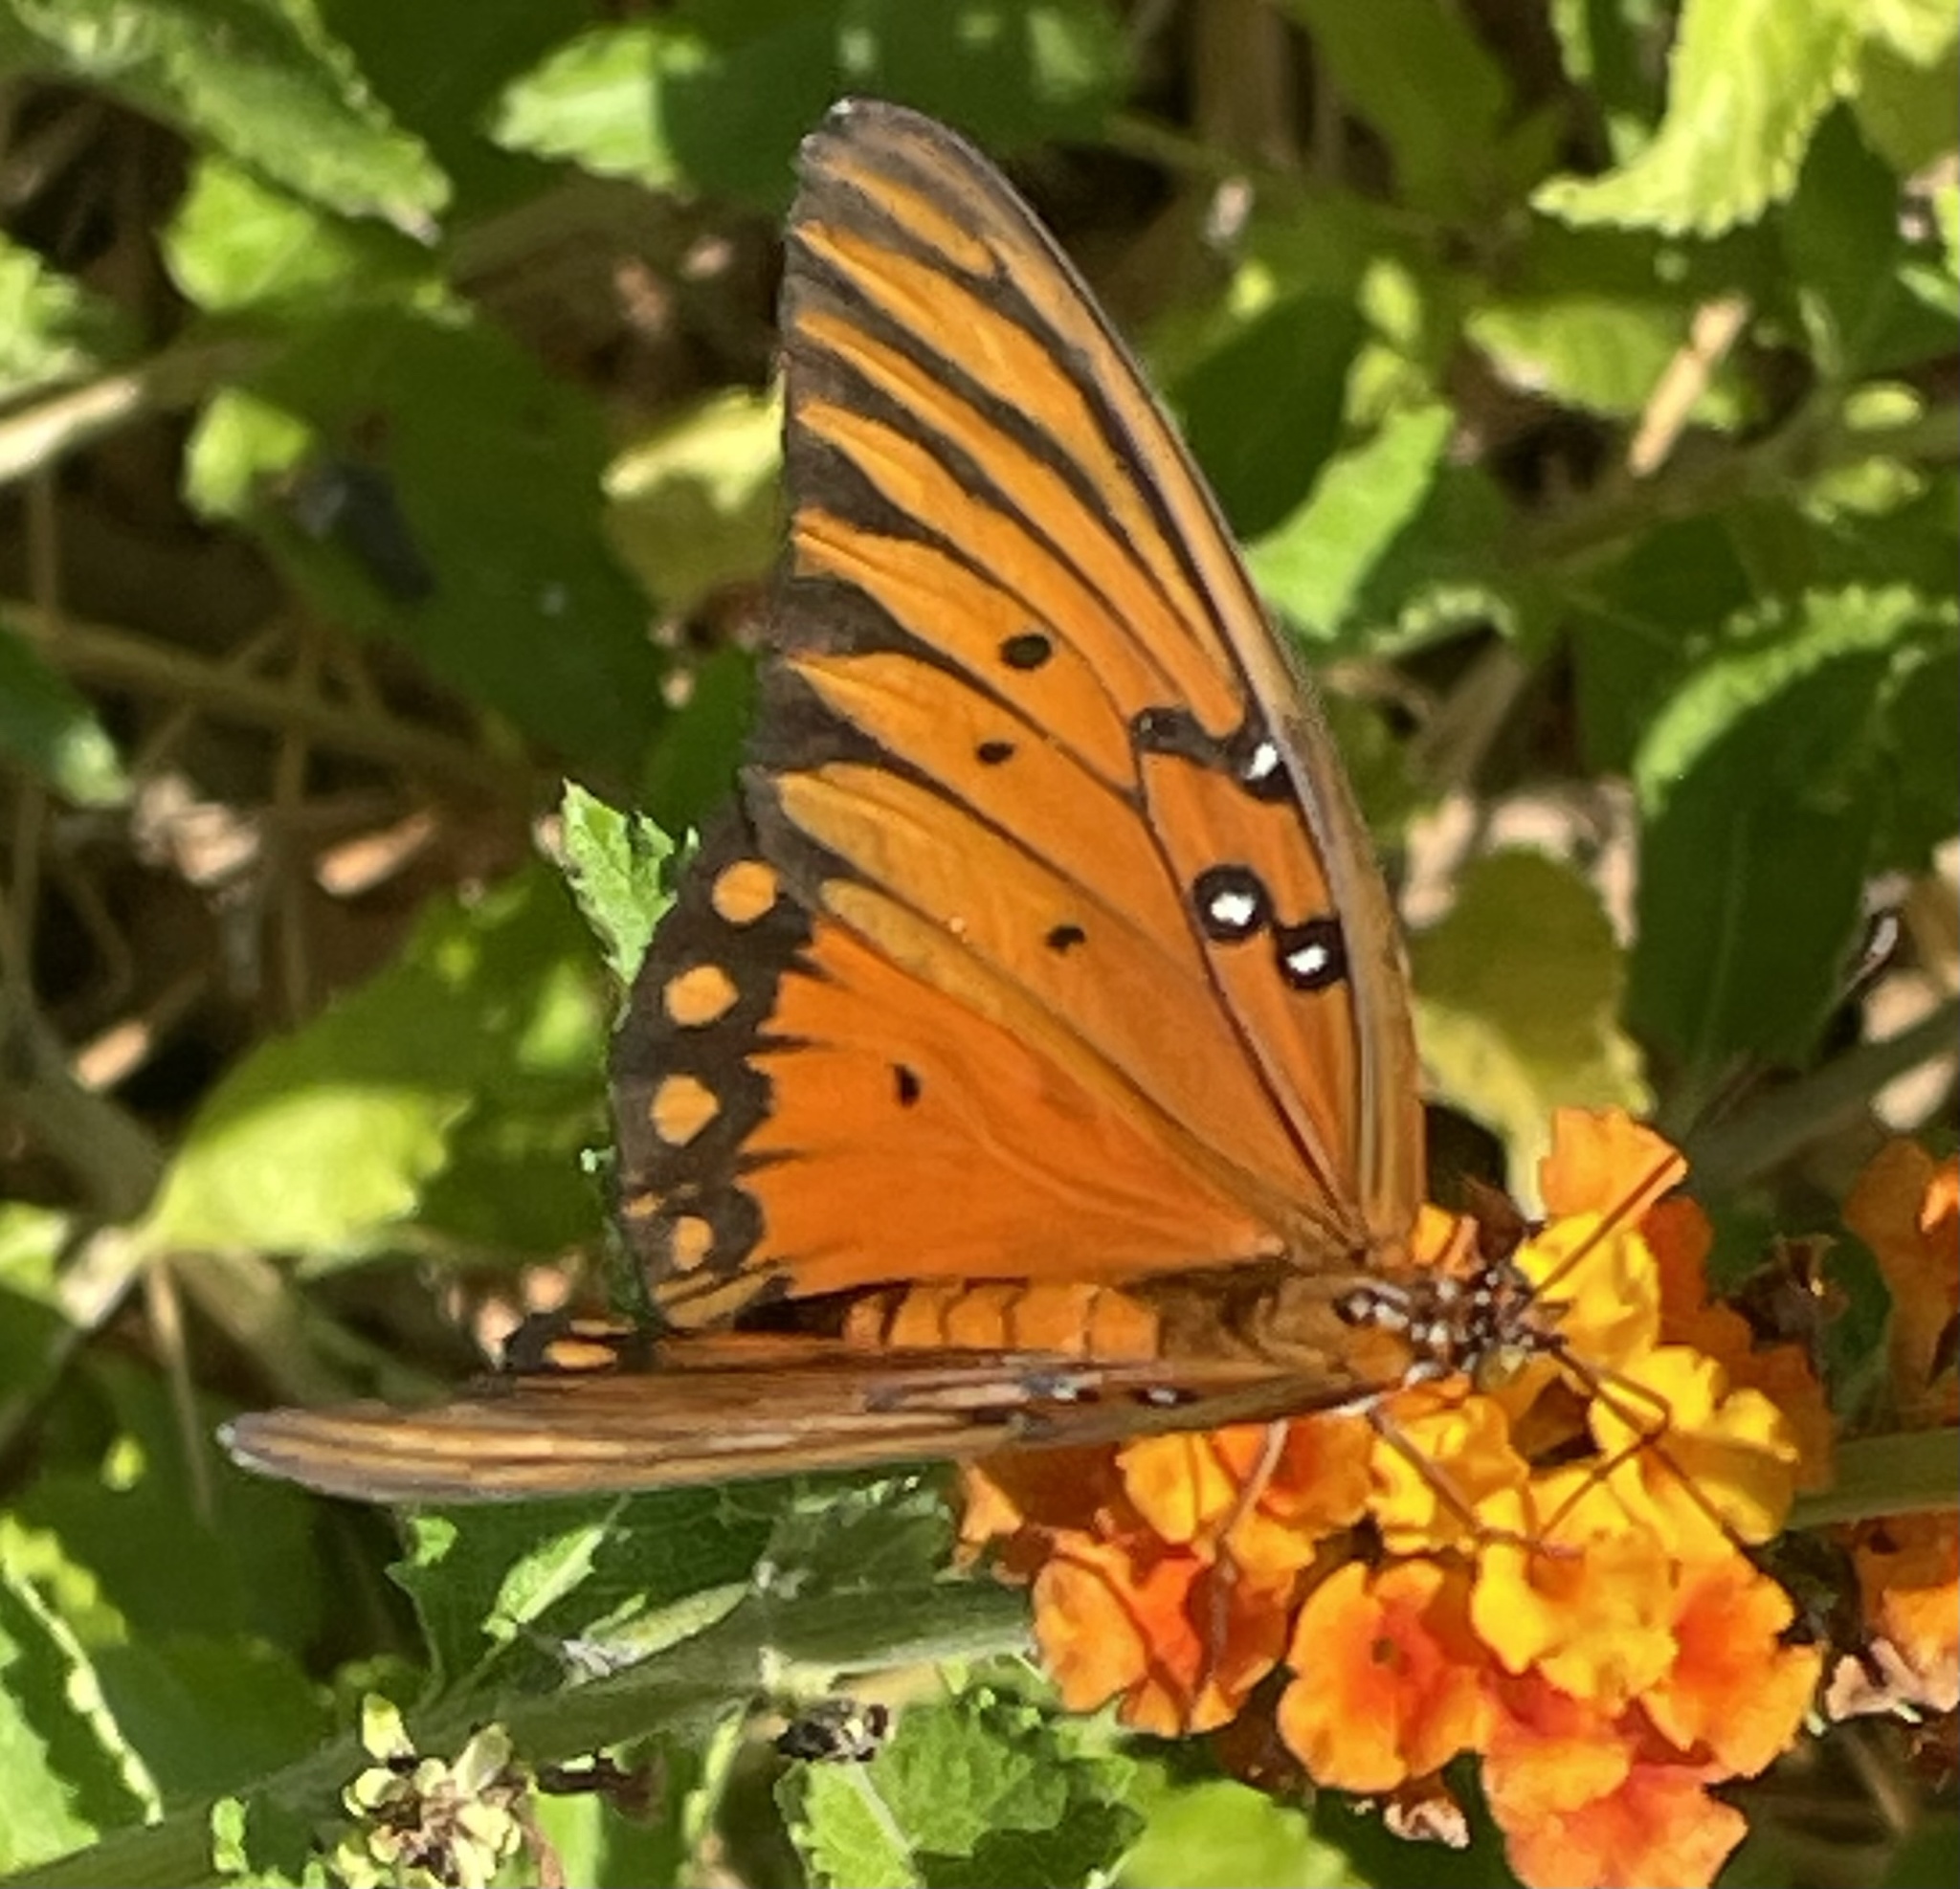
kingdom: Animalia
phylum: Arthropoda
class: Insecta
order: Lepidoptera
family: Nymphalidae
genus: Dione
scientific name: Dione vanillae
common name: Gulf fritillary
